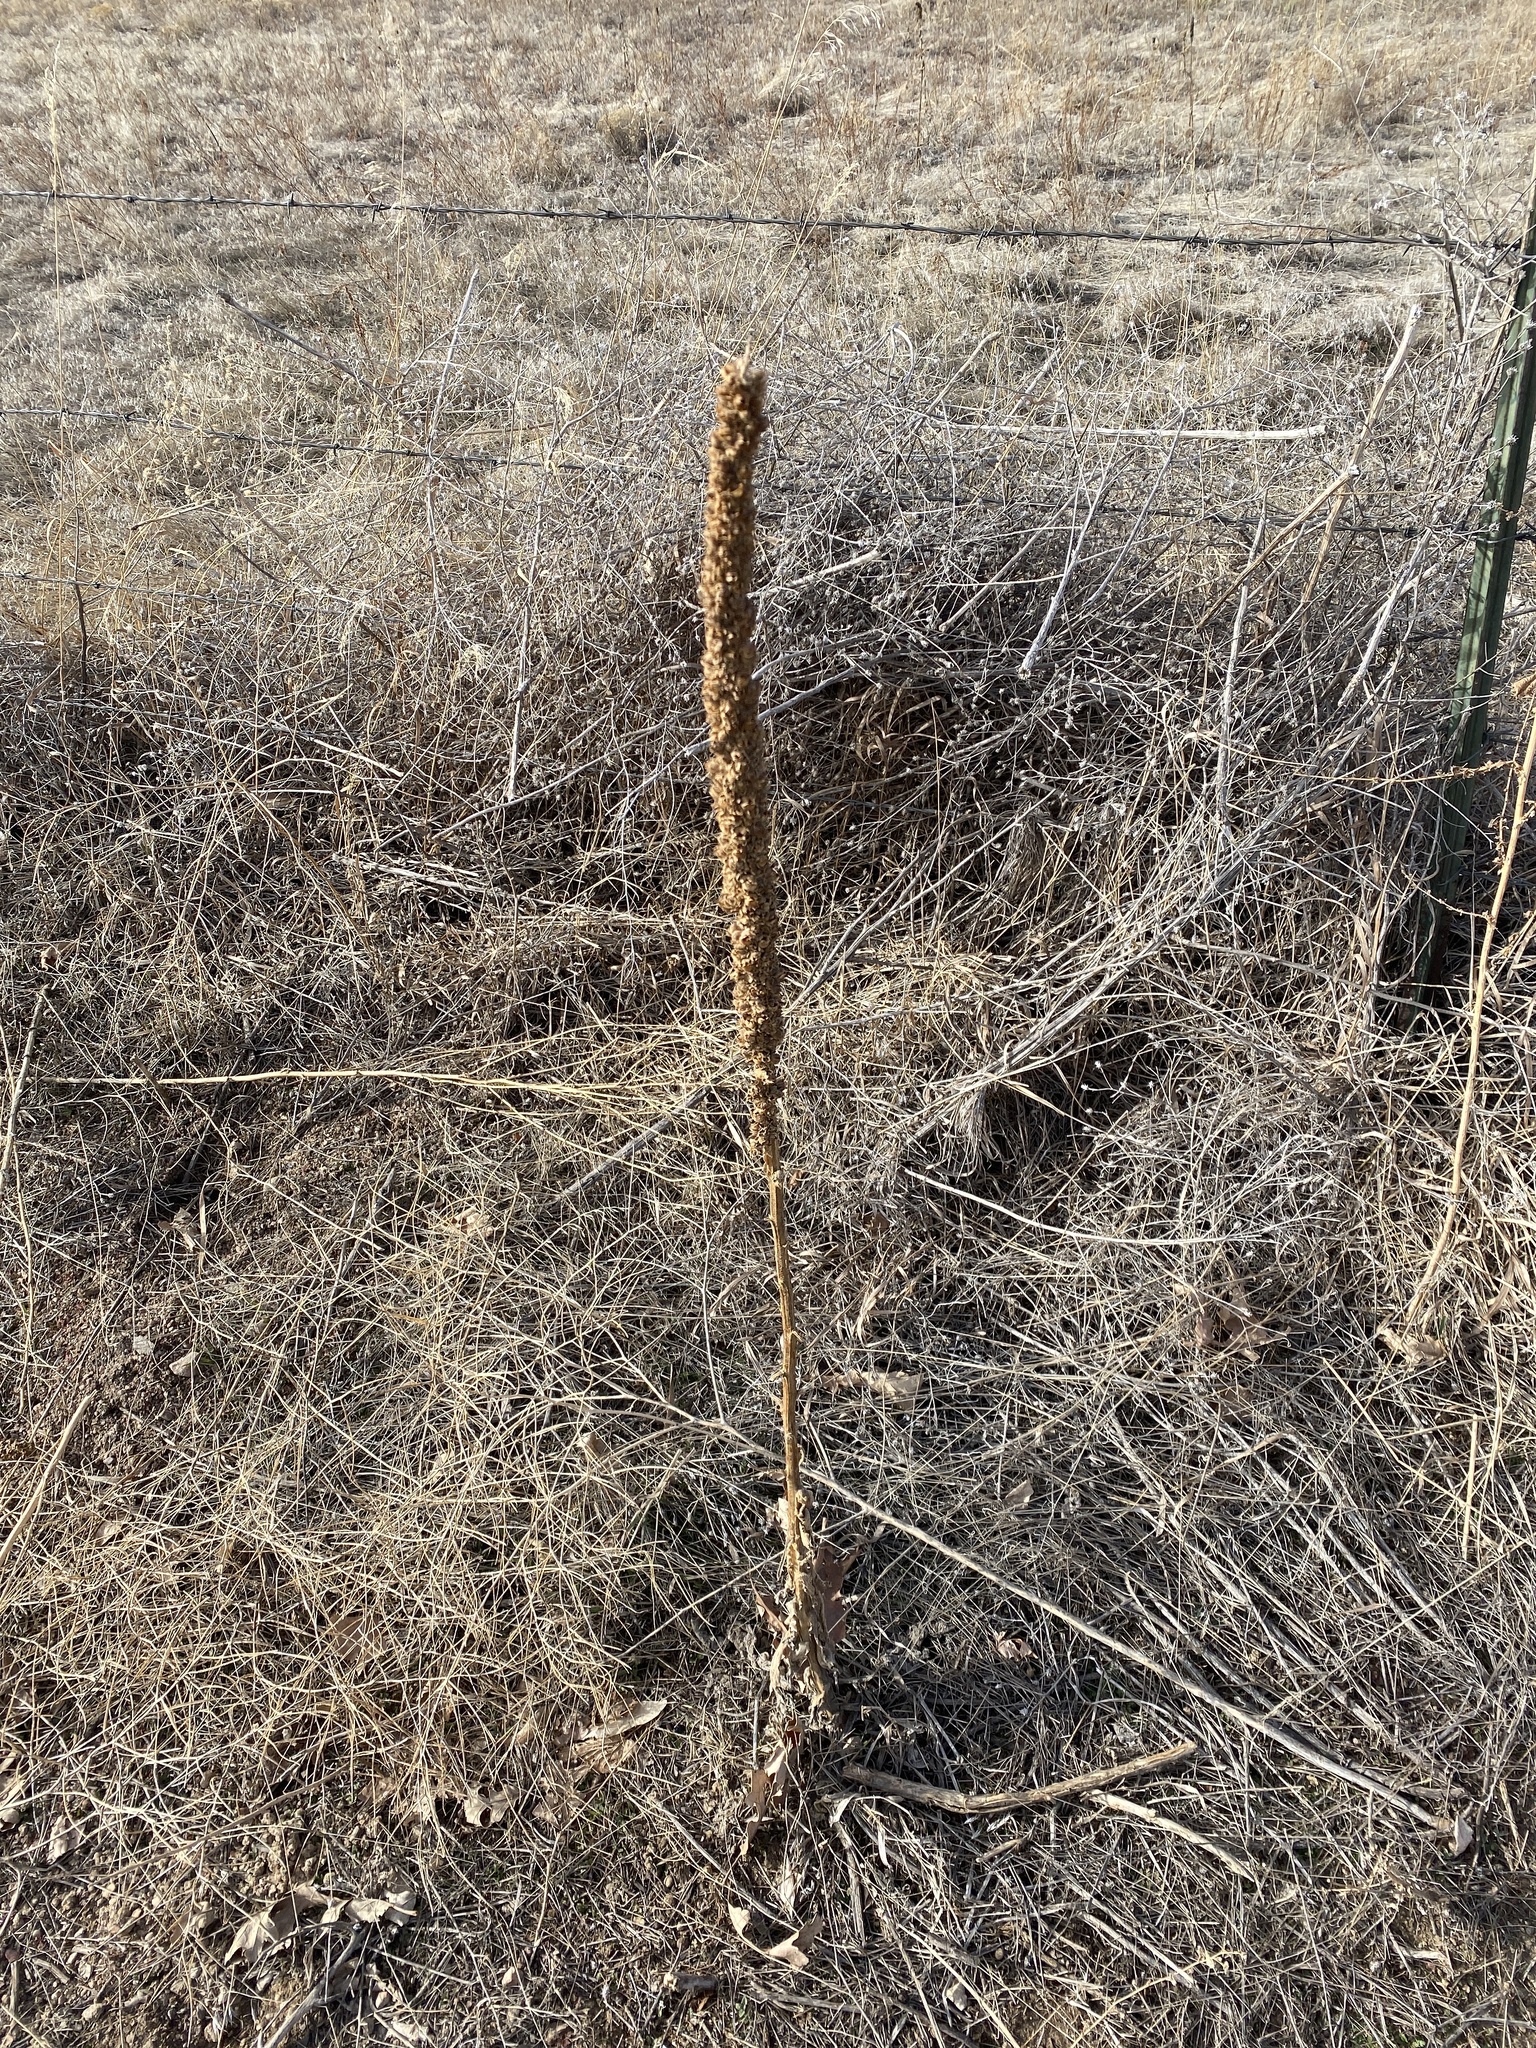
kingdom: Plantae
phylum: Tracheophyta
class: Magnoliopsida
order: Lamiales
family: Scrophulariaceae
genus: Verbascum
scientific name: Verbascum thapsus
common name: Common mullein
